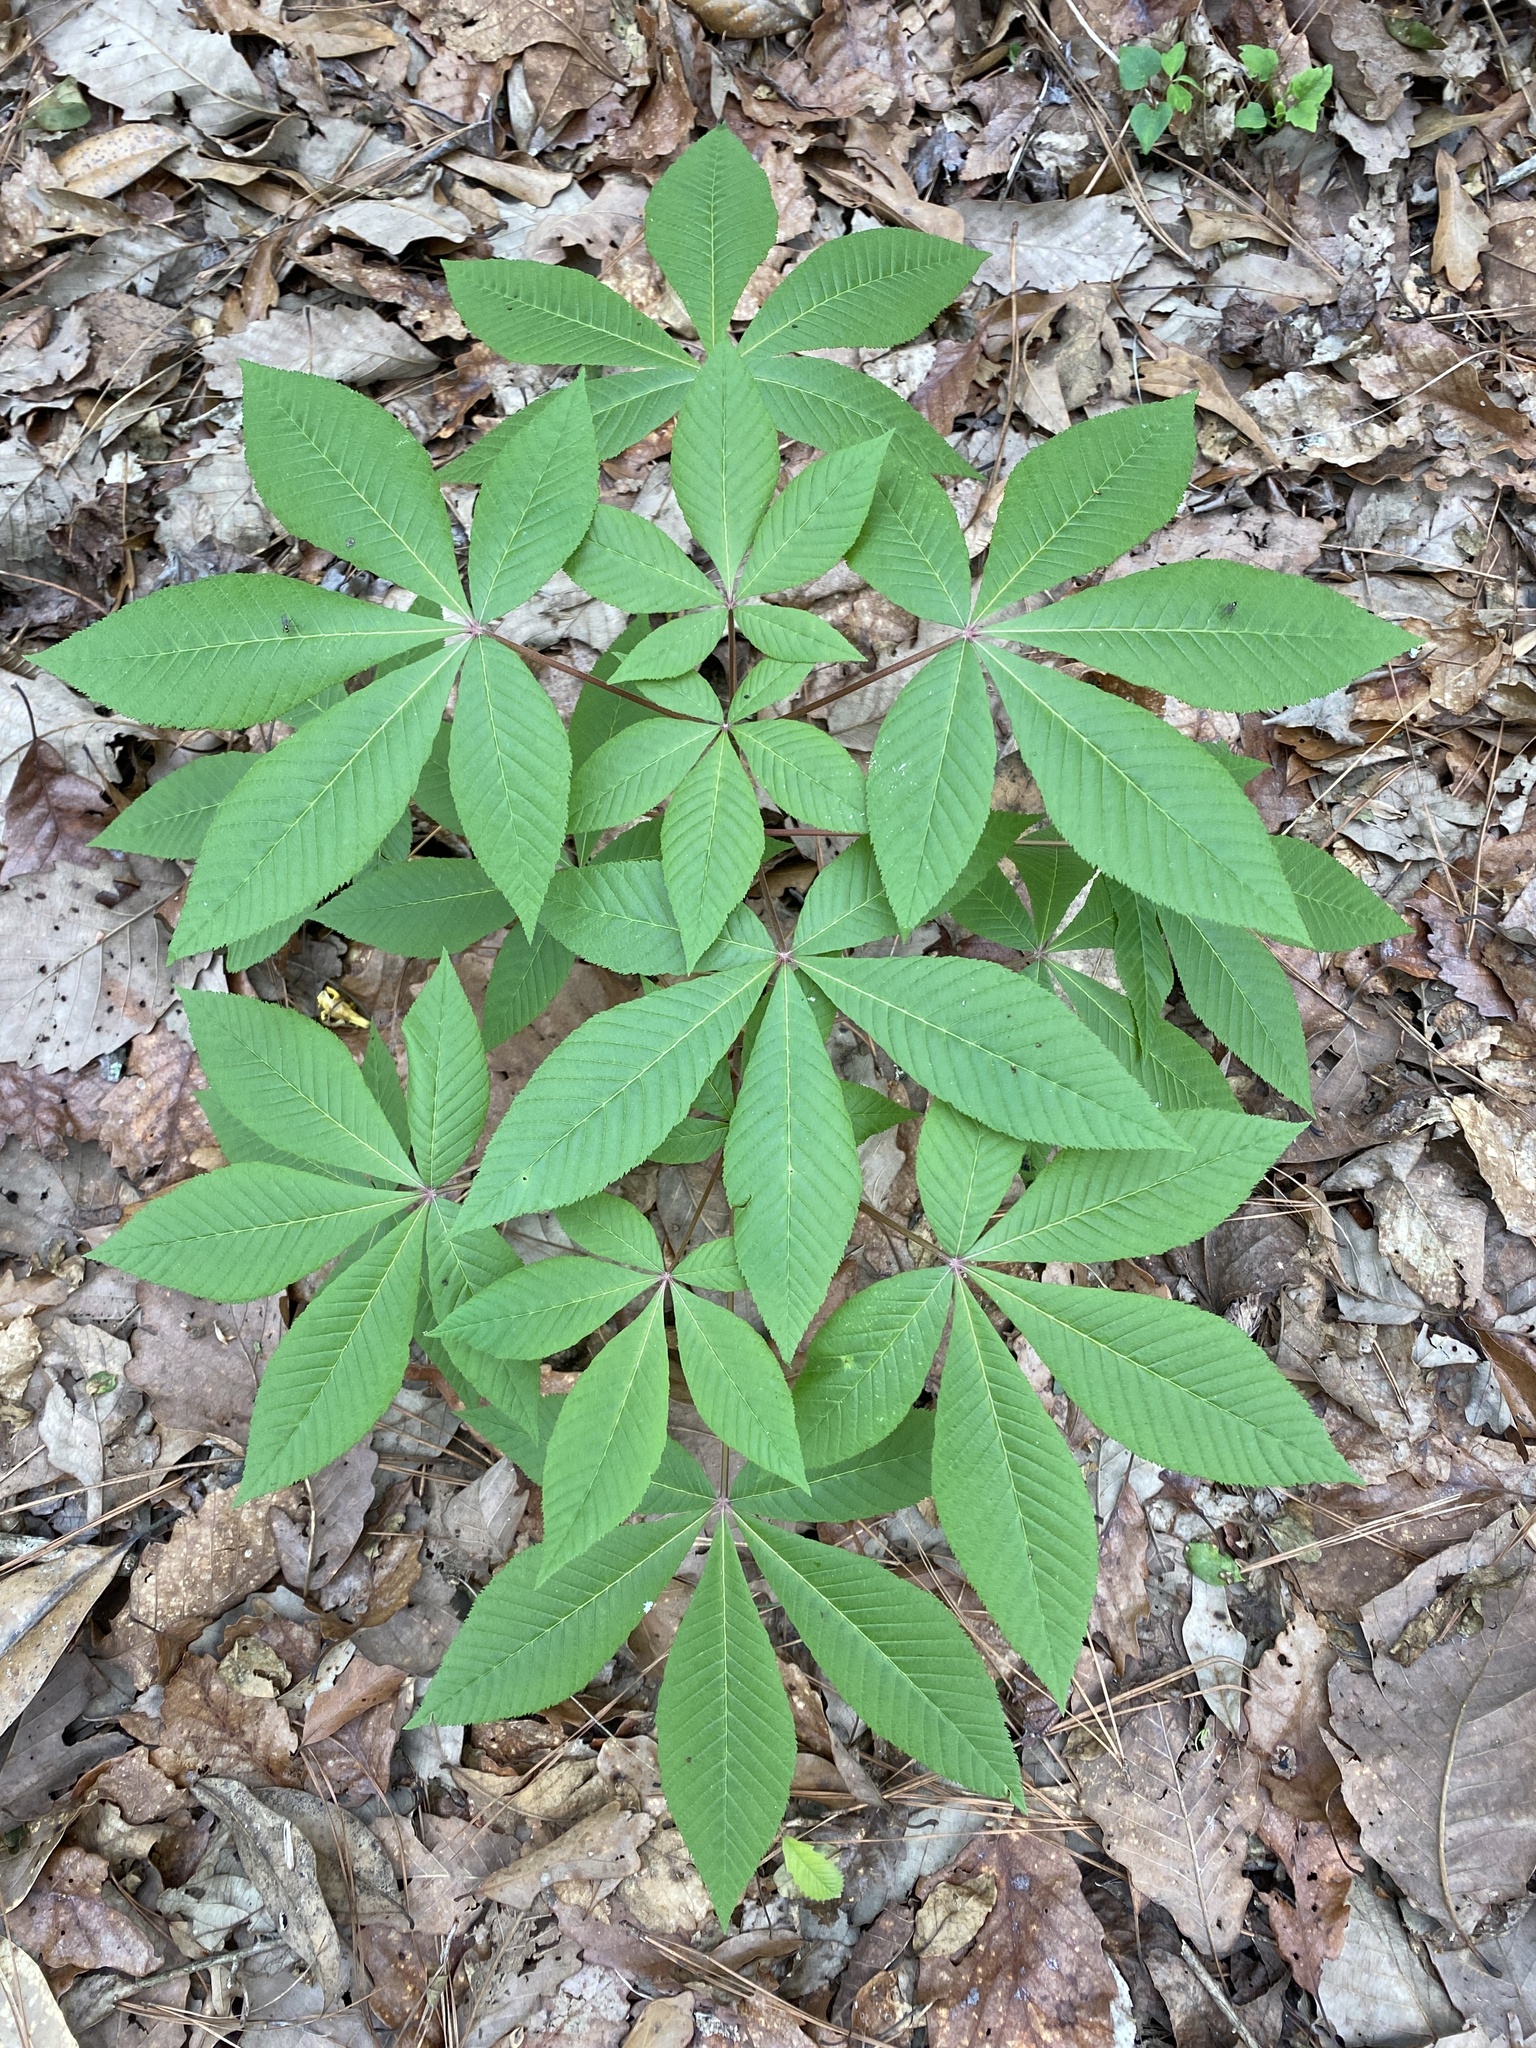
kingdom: Plantae
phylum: Tracheophyta
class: Magnoliopsida
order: Sapindales
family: Sapindaceae
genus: Aesculus
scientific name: Aesculus pavia
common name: Red buckeye
